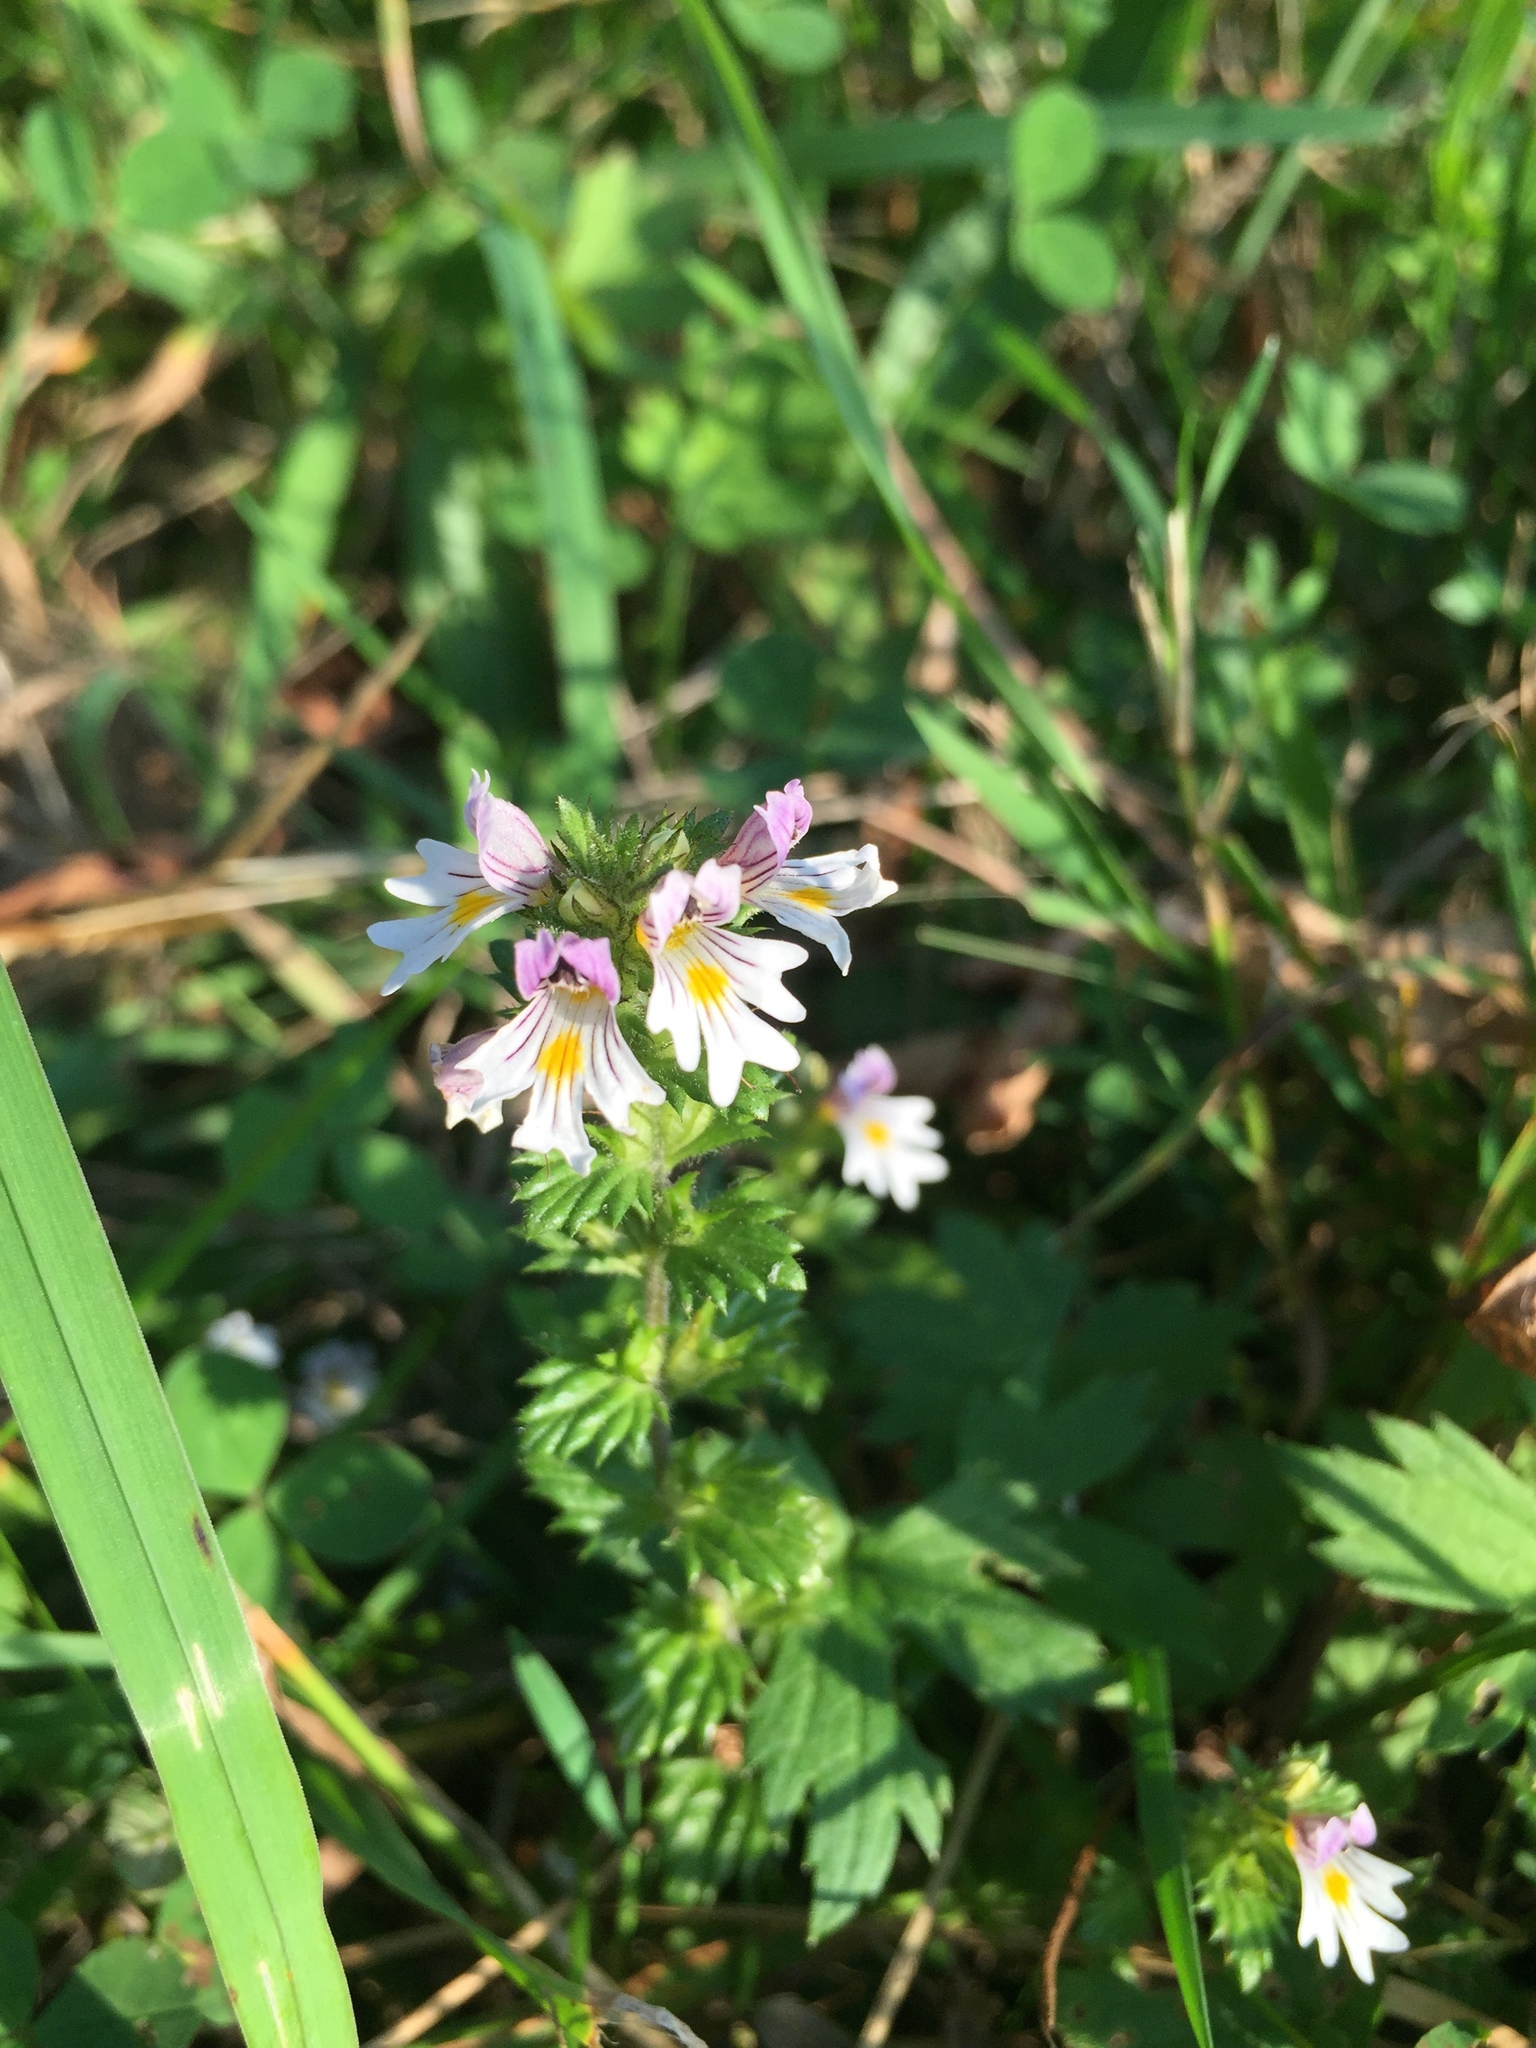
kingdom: Plantae
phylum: Tracheophyta
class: Magnoliopsida
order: Lamiales
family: Orobanchaceae
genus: Euphrasia
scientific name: Euphrasia officinalis
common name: Eyebright
